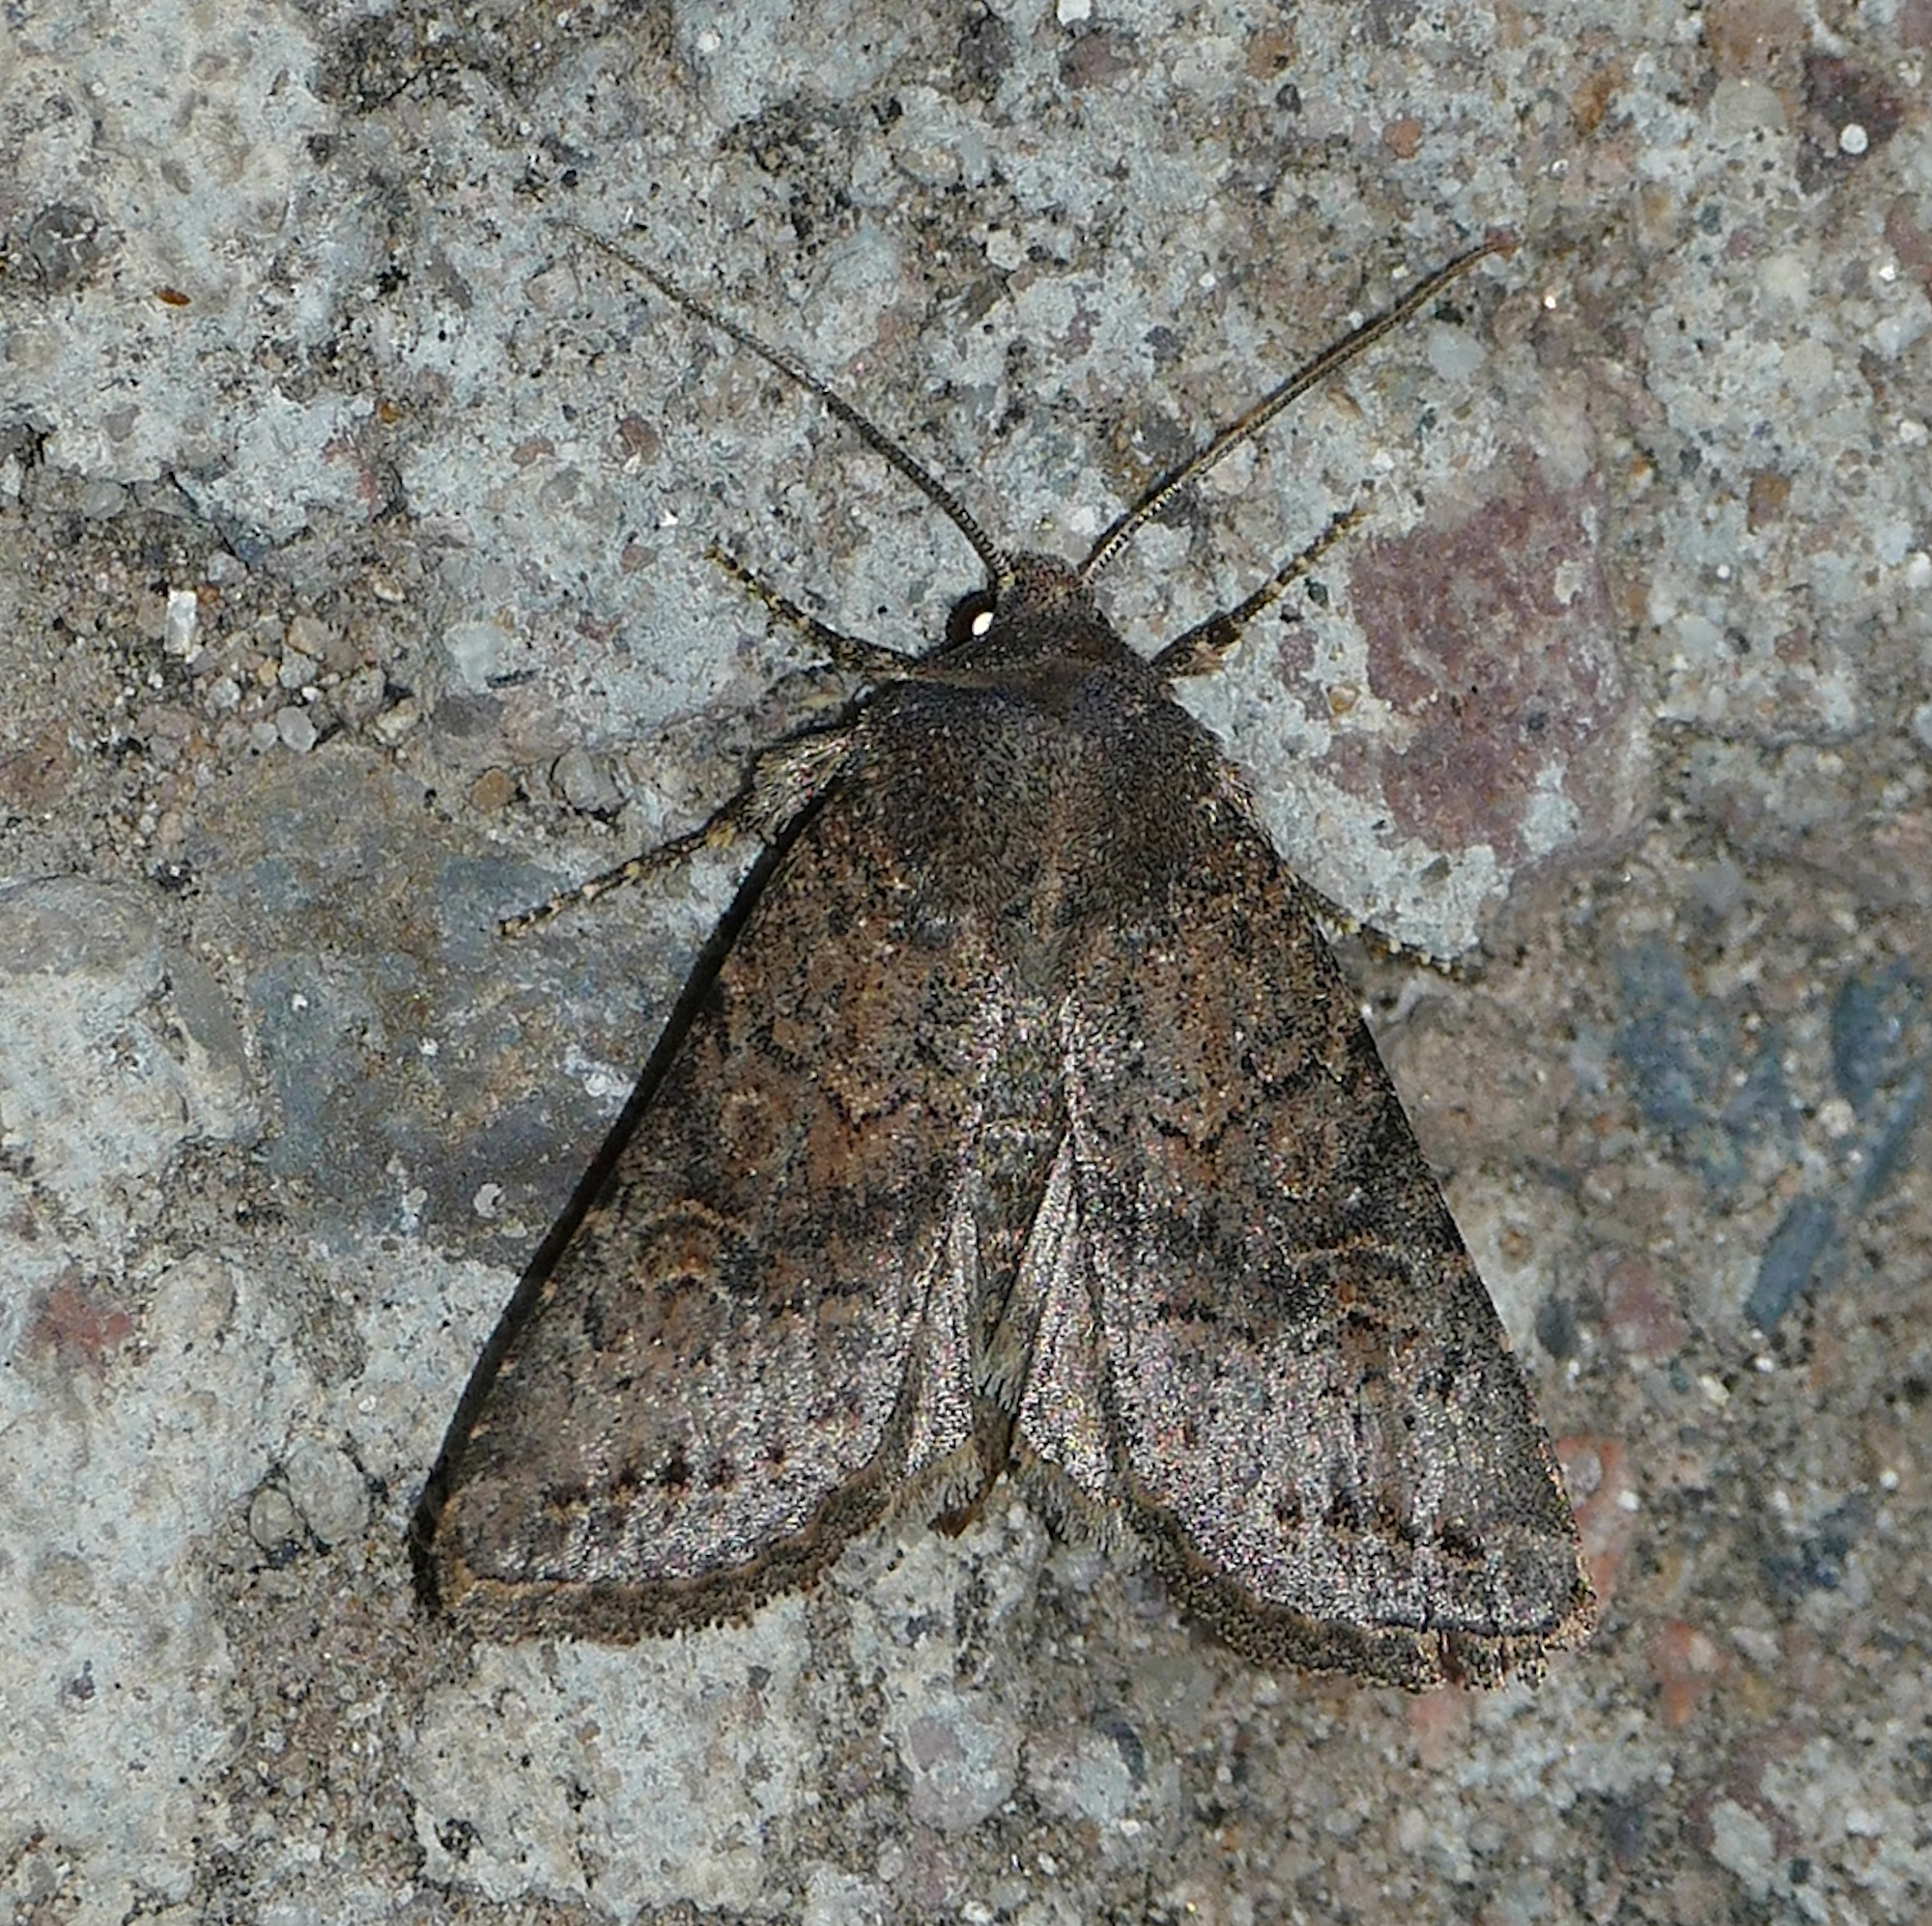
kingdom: Animalia
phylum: Arthropoda
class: Insecta
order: Lepidoptera
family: Noctuidae
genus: Trichopolia
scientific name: Trichopolia
